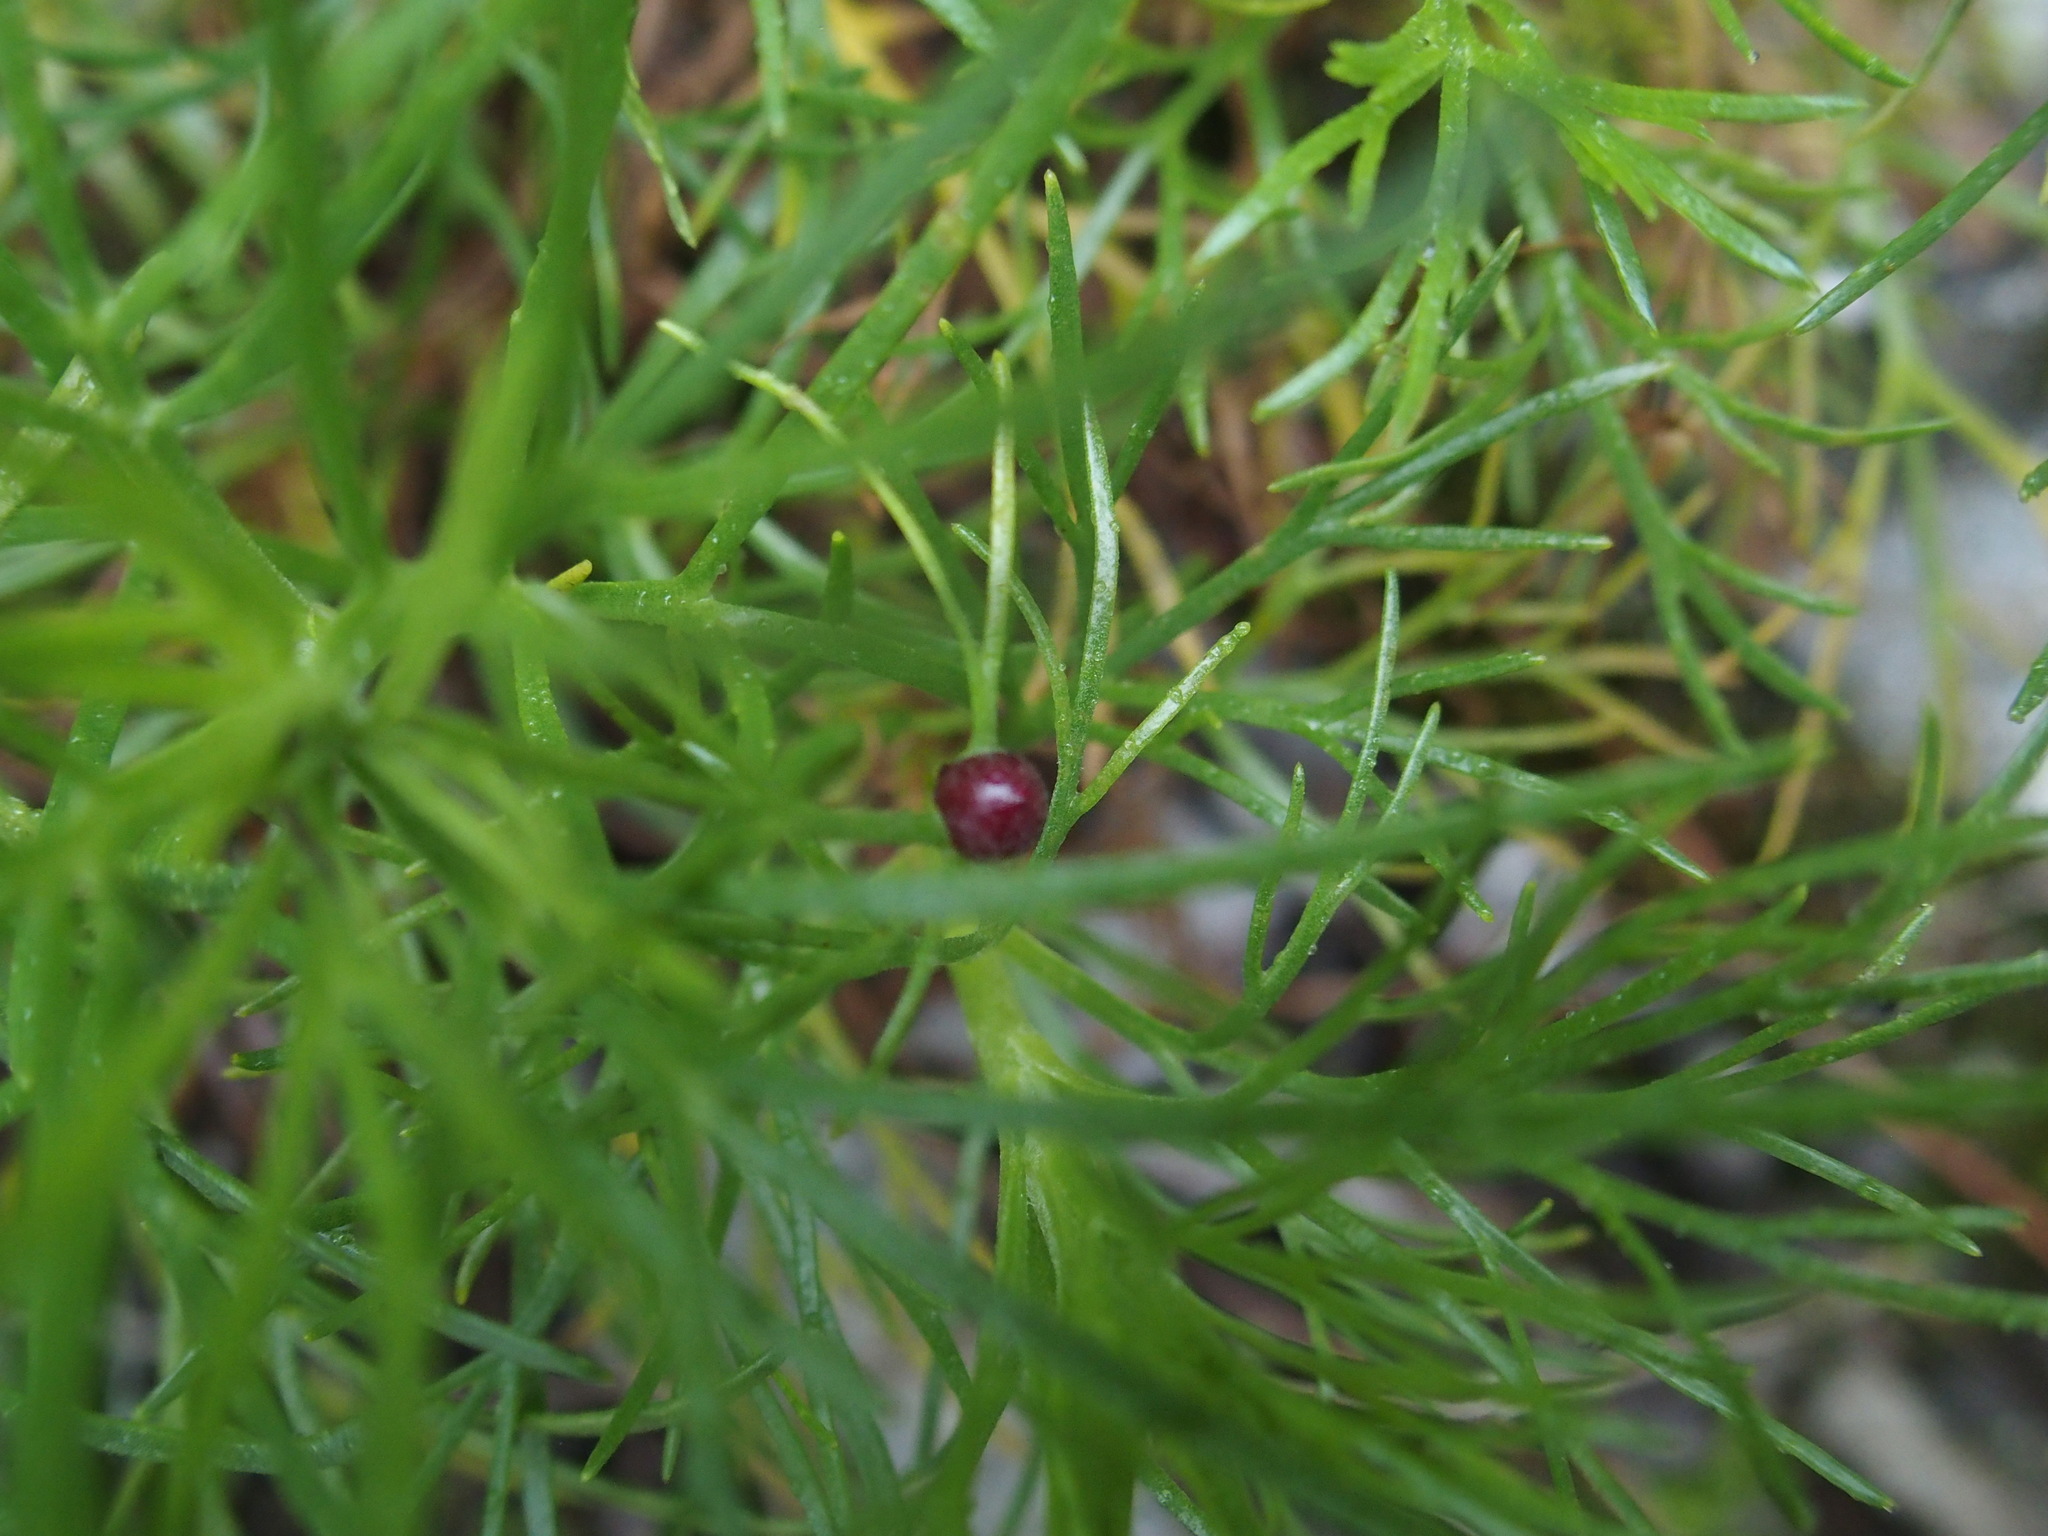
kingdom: Plantae
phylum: Tracheophyta
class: Magnoliopsida
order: Asterales
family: Asteraceae
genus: Artemisia
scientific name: Artemisia morrisonensis
